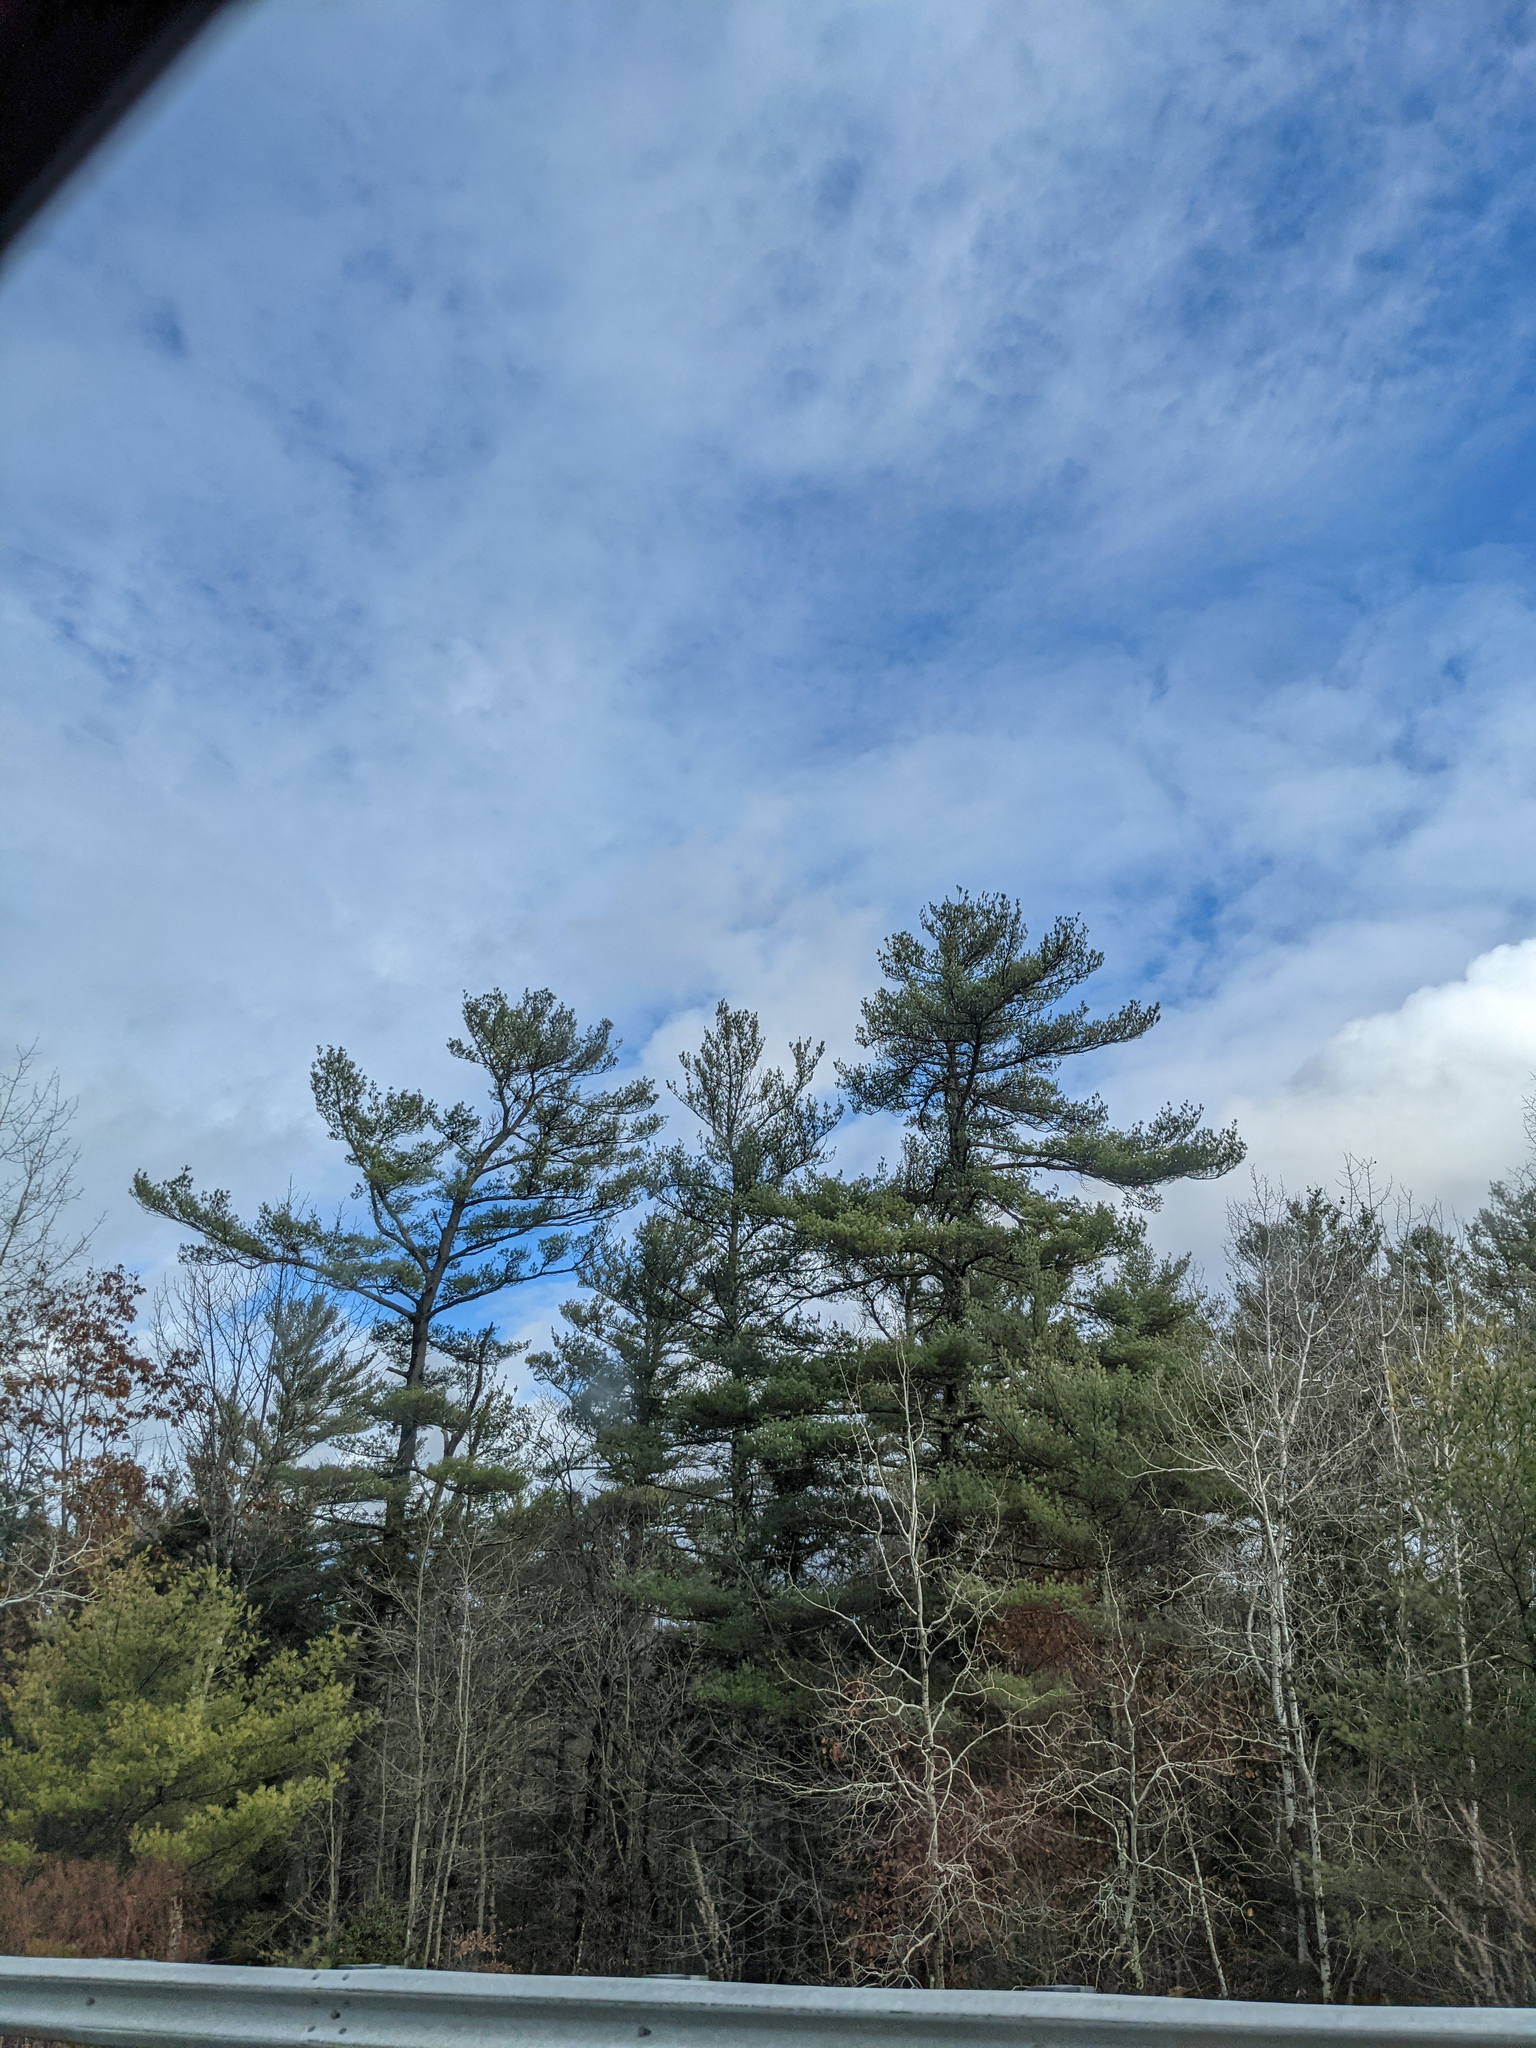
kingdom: Plantae
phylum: Tracheophyta
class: Pinopsida
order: Pinales
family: Pinaceae
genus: Pinus
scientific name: Pinus strobus
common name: Weymouth pine
